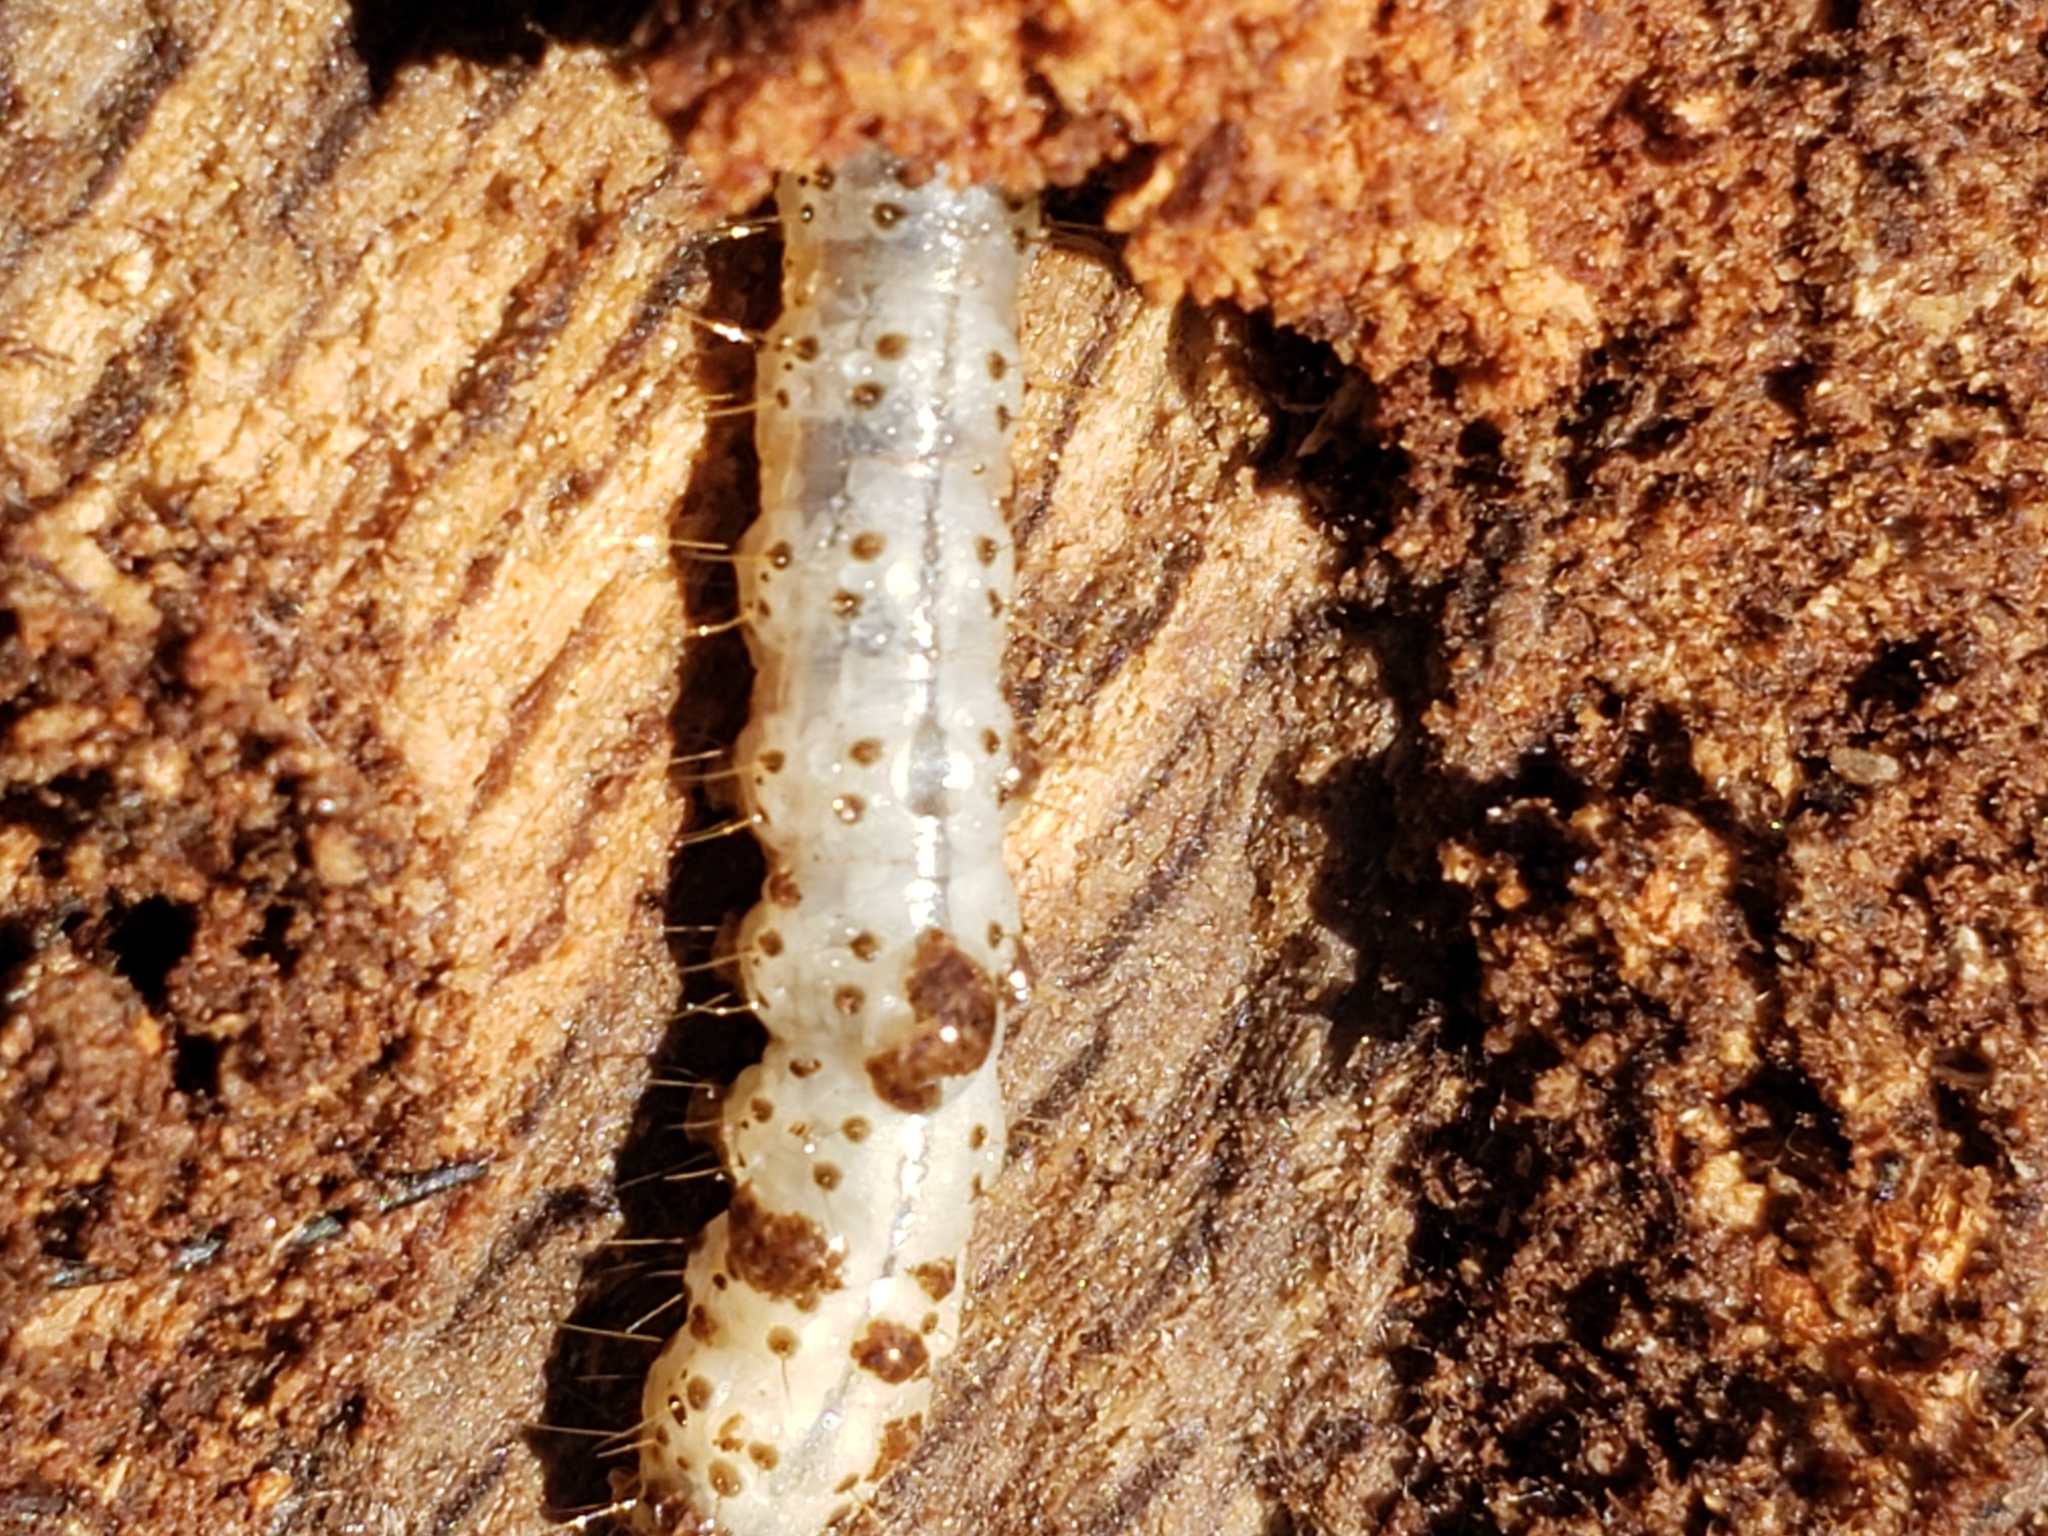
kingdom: Animalia
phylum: Arthropoda
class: Insecta
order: Lepidoptera
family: Erebidae
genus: Scolecocampa
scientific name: Scolecocampa liburna
